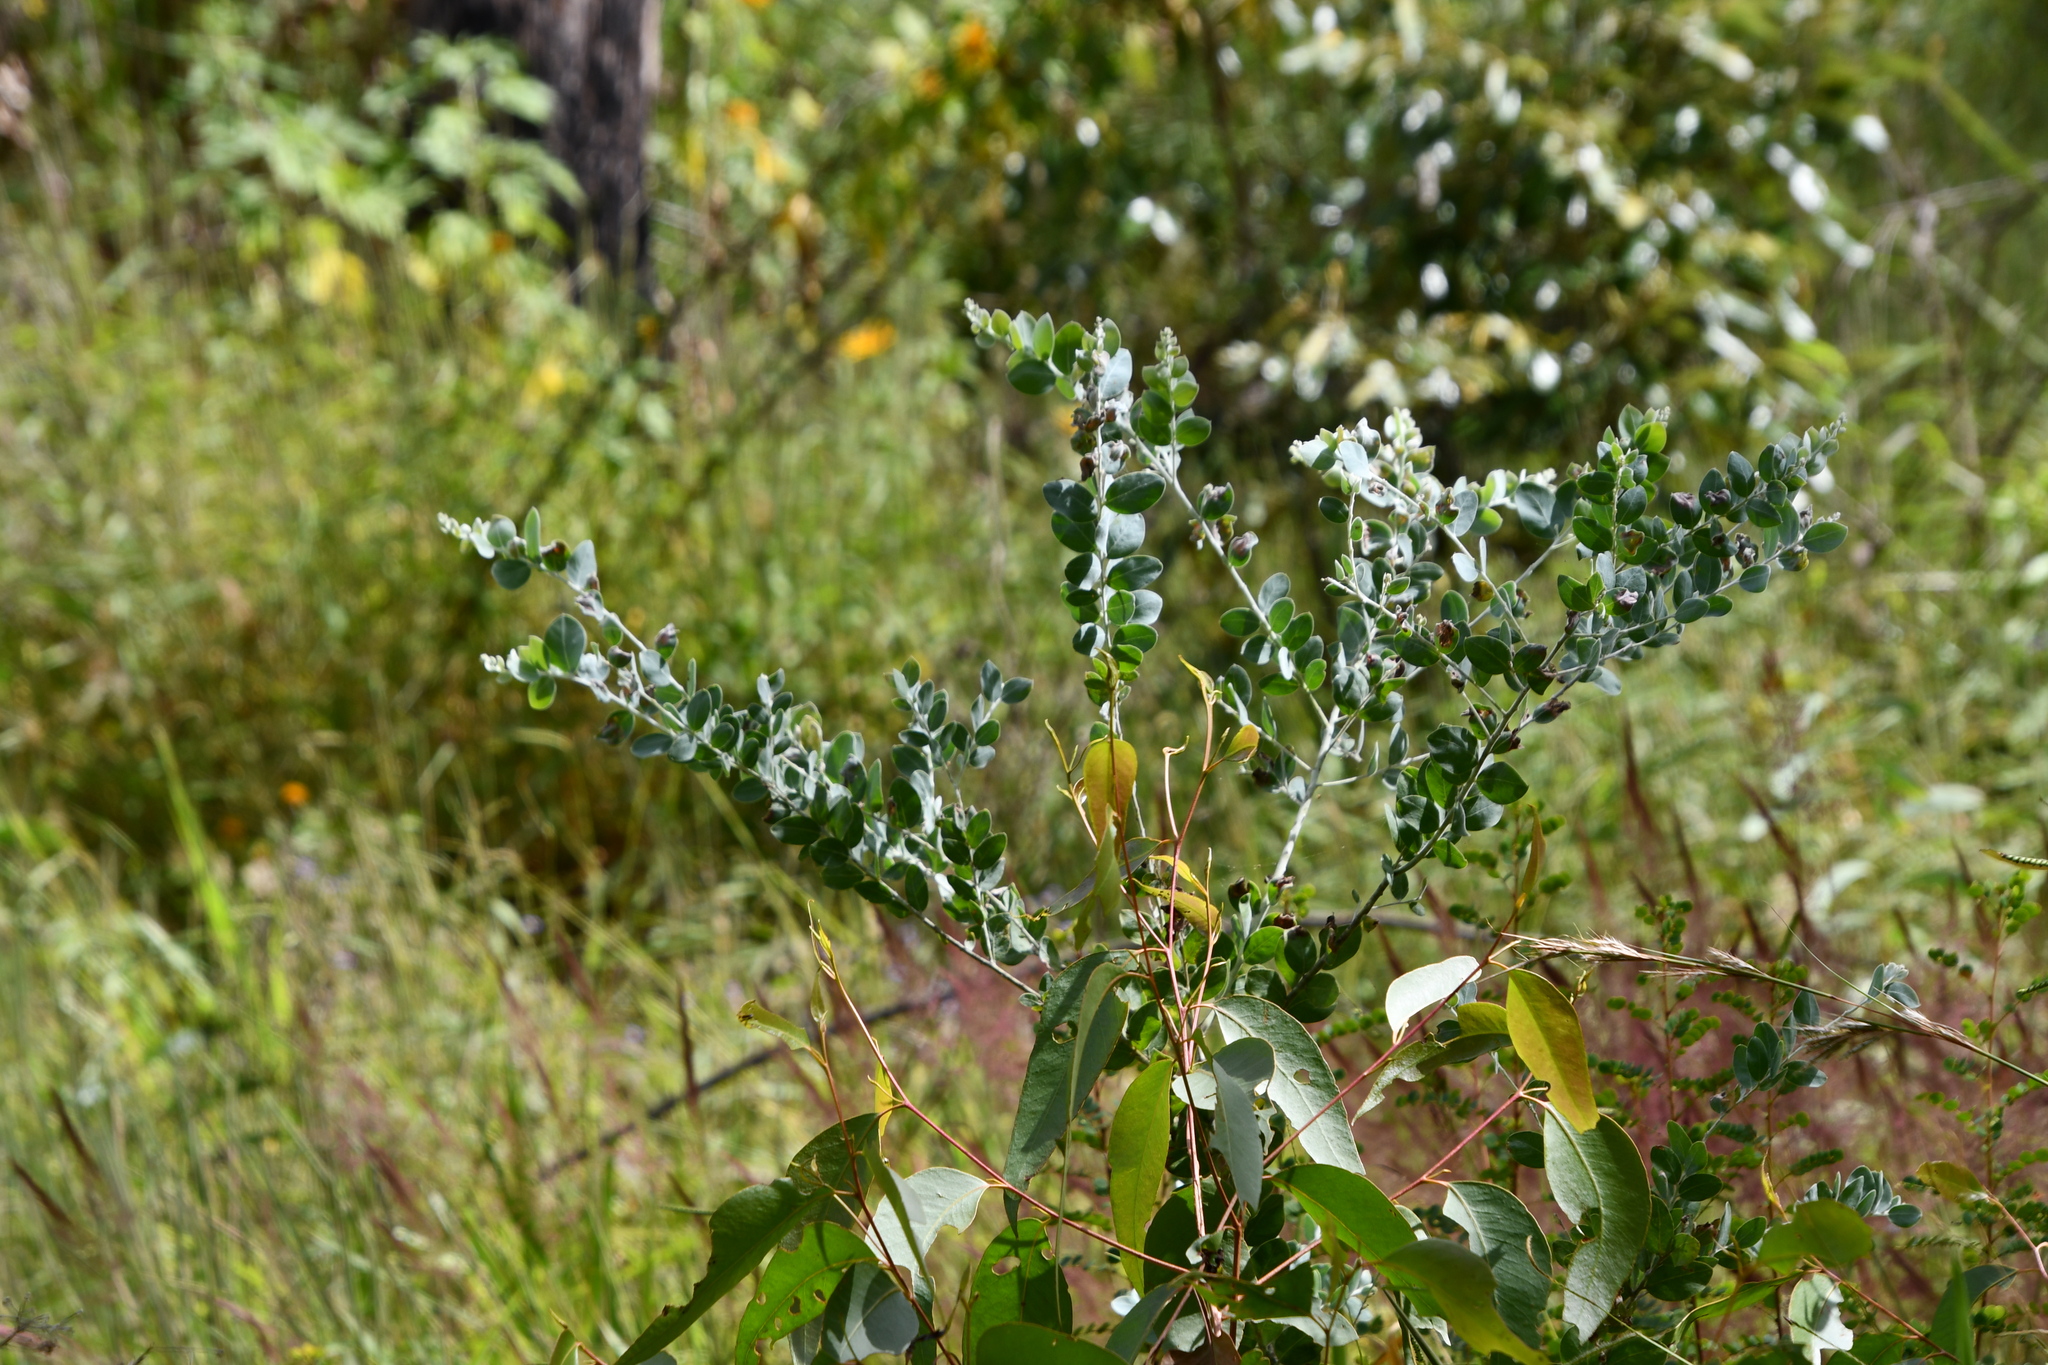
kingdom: Plantae
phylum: Tracheophyta
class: Magnoliopsida
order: Fabales
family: Fabaceae
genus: Acacia
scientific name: Acacia podalyriifolia
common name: Pearl wattle
